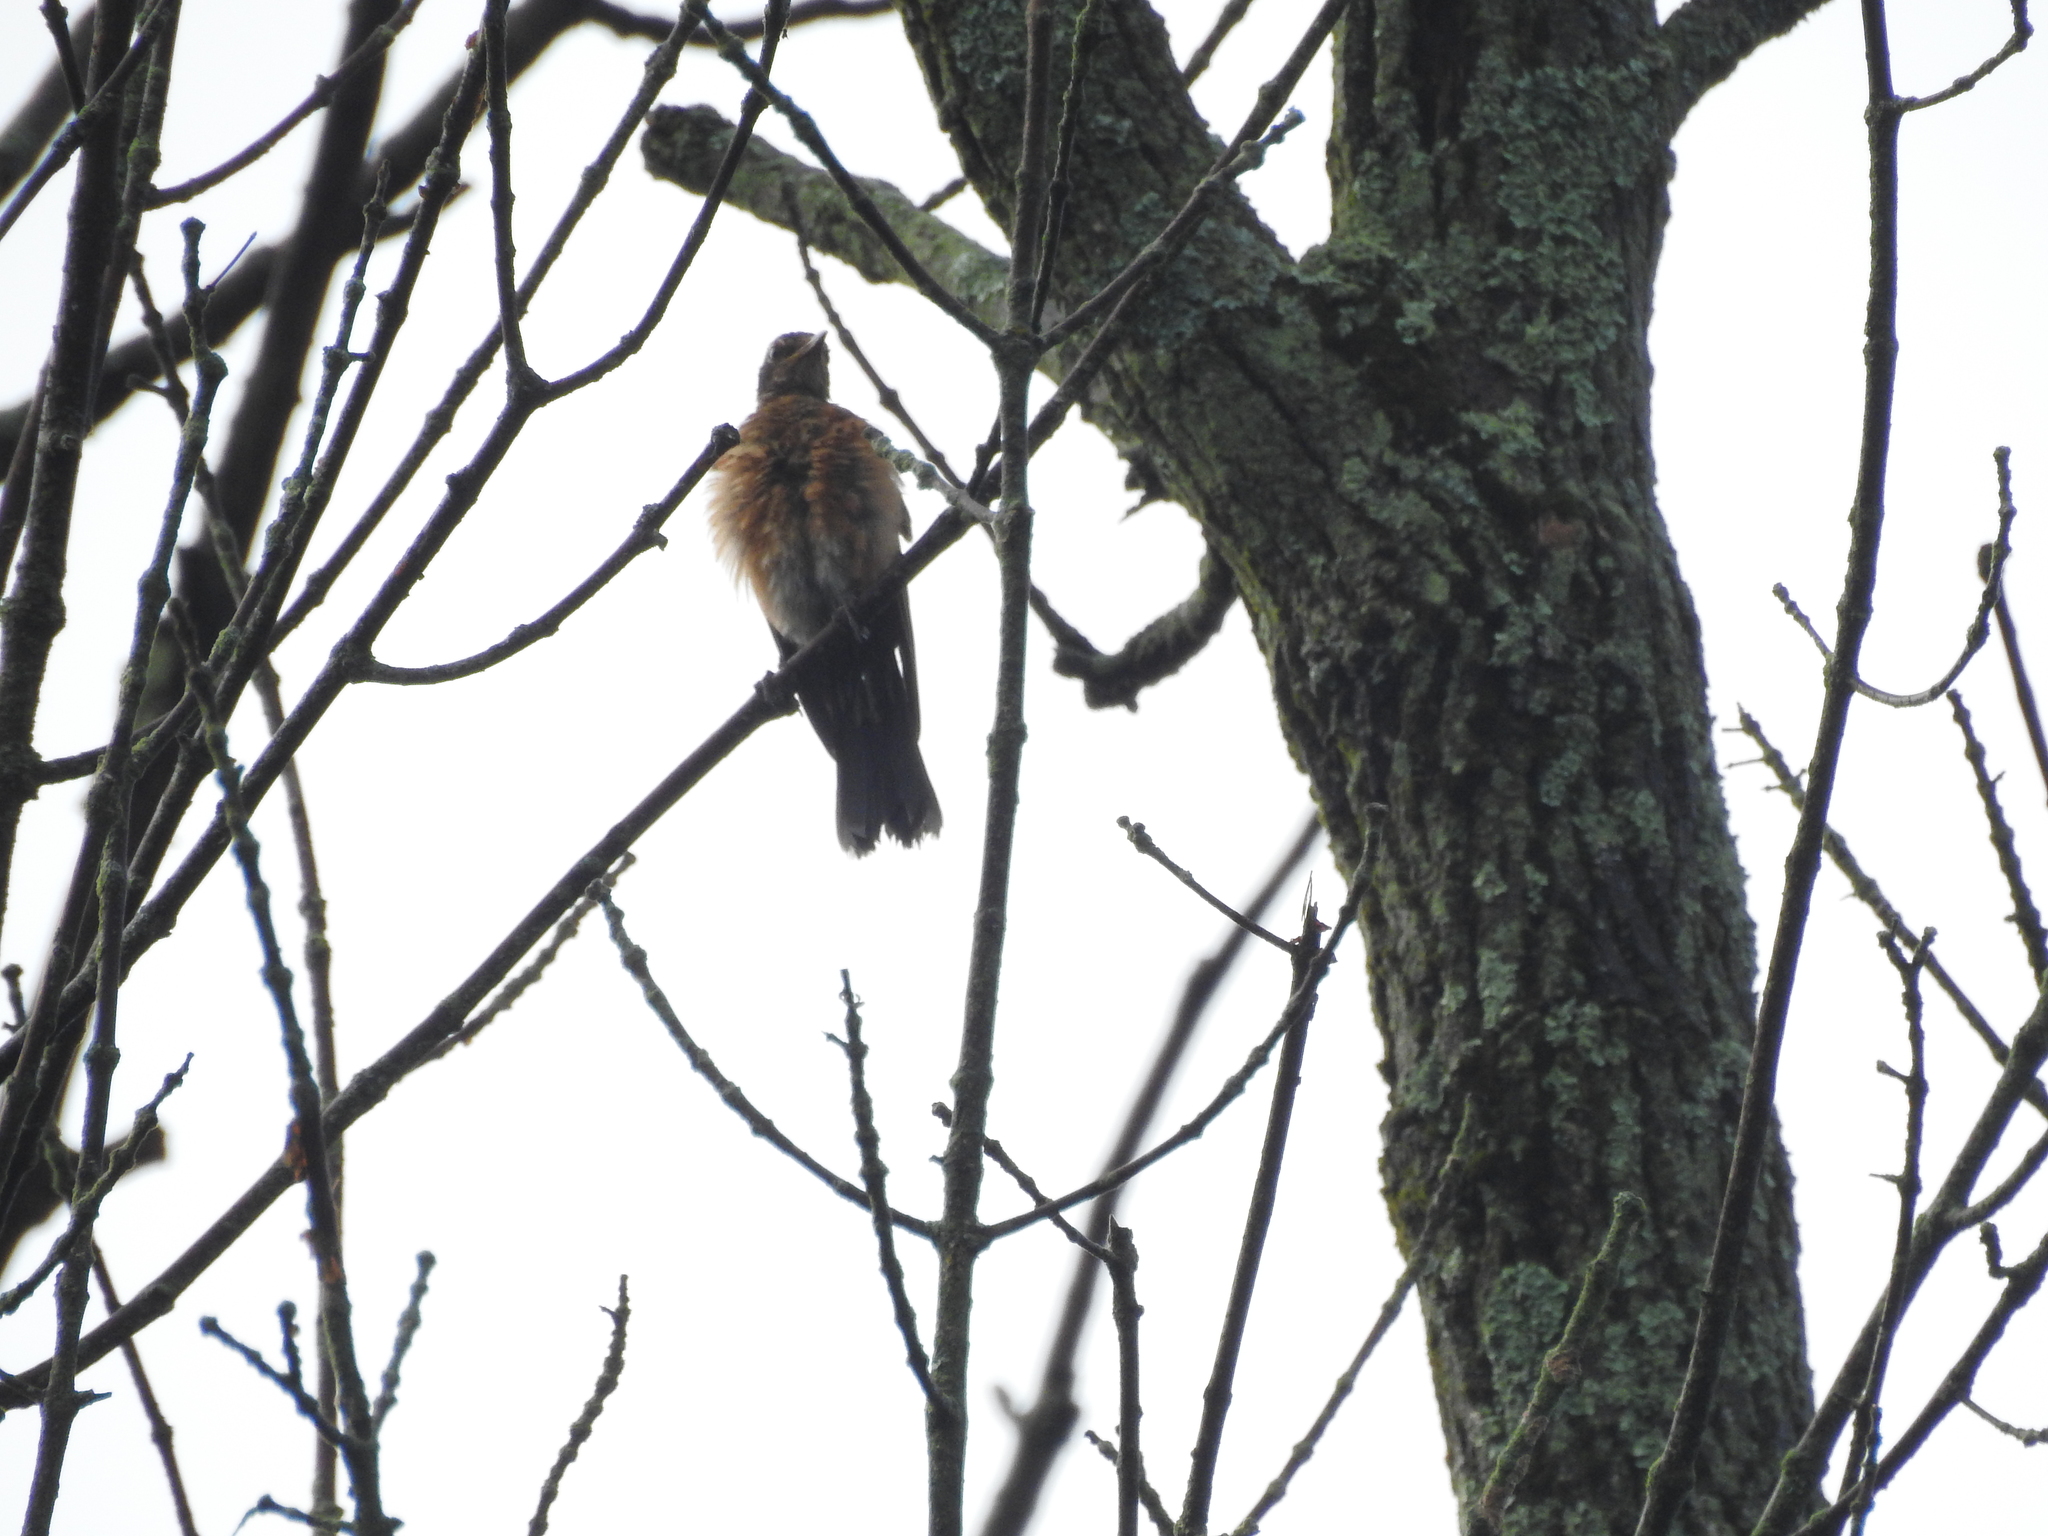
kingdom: Animalia
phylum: Chordata
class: Aves
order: Passeriformes
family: Turdidae
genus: Turdus
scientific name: Turdus migratorius
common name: American robin
